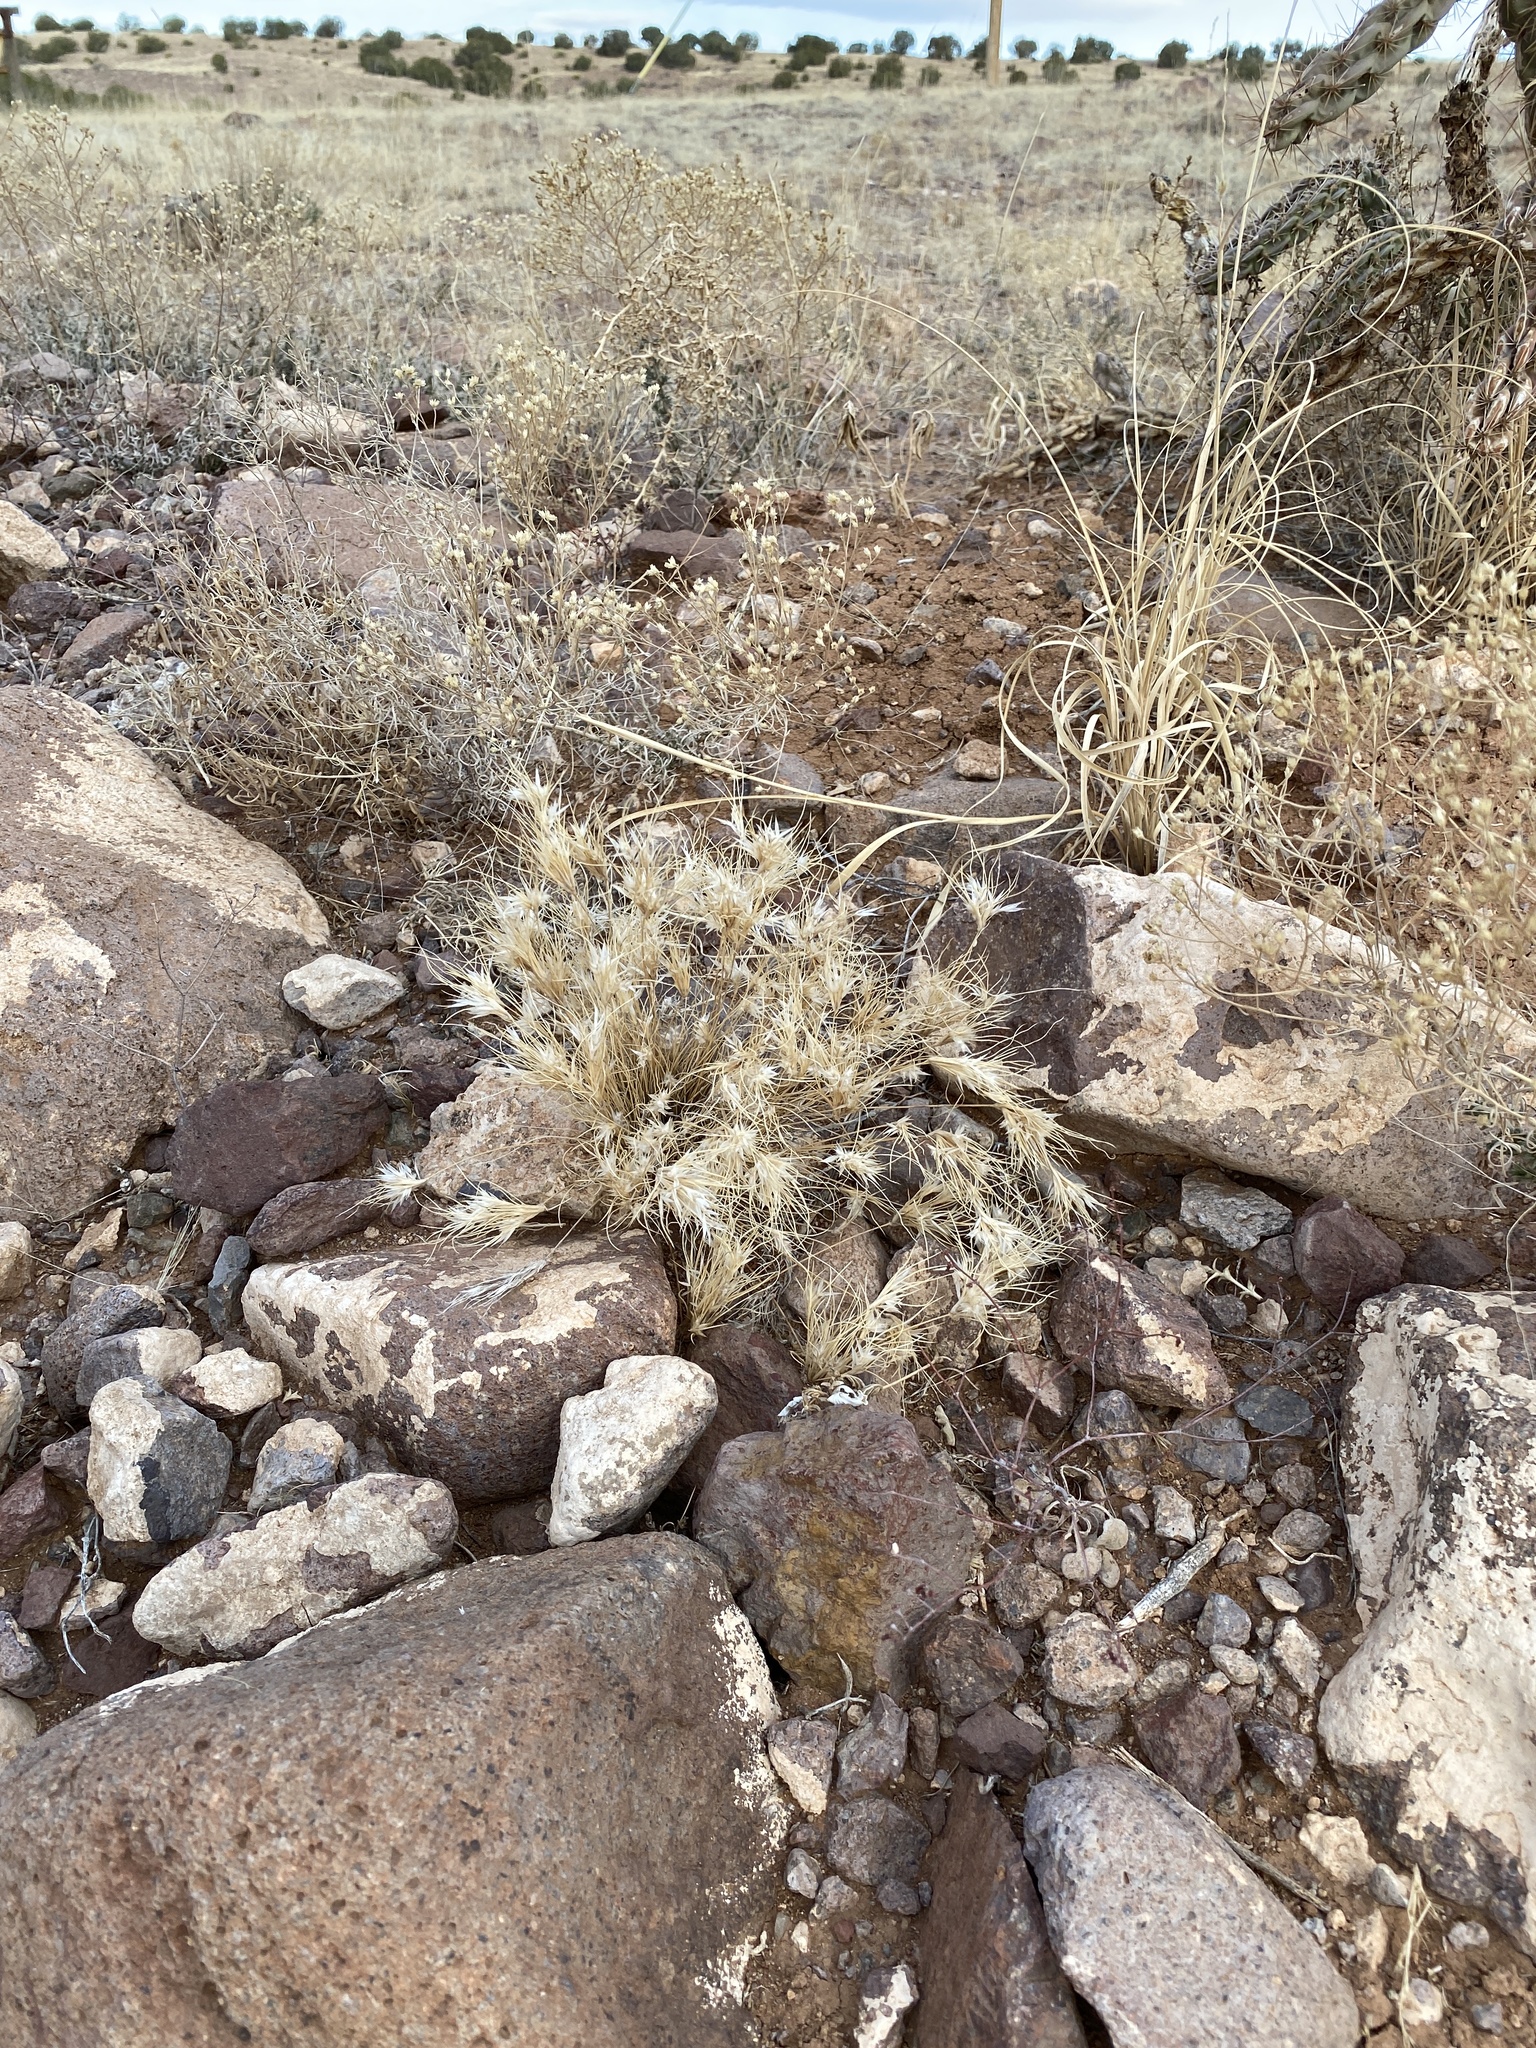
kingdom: Plantae
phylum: Tracheophyta
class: Liliopsida
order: Poales
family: Poaceae
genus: Dasyochloa
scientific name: Dasyochloa pulchella
